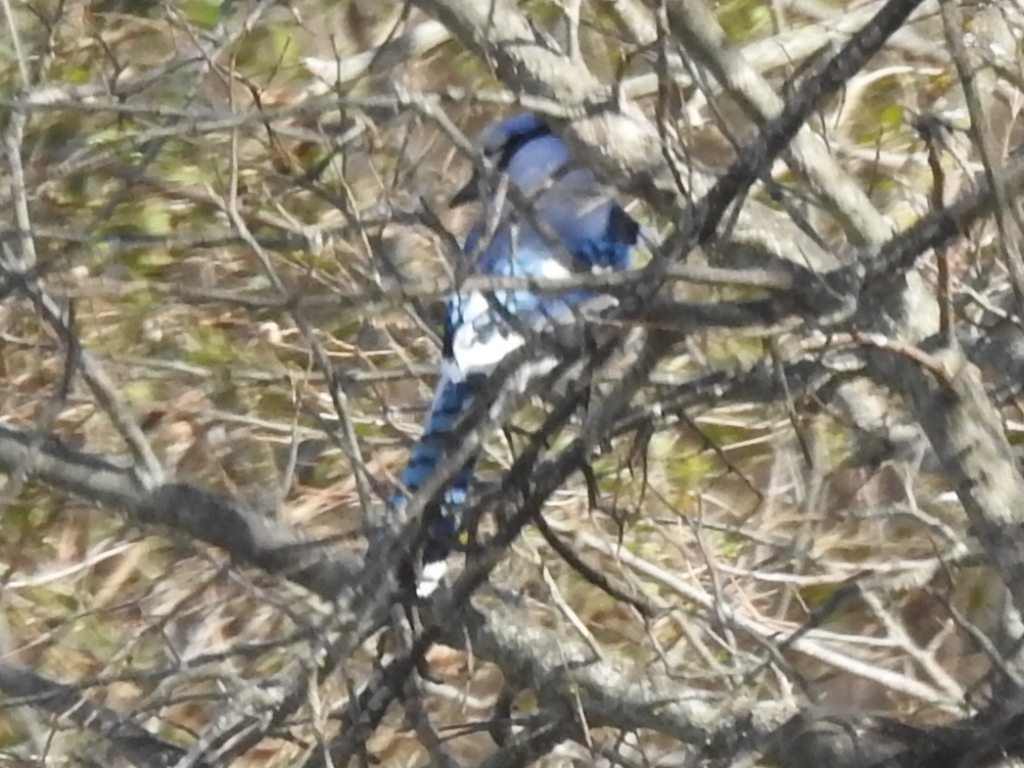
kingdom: Animalia
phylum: Chordata
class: Aves
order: Passeriformes
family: Corvidae
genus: Cyanocitta
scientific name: Cyanocitta cristata
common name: Blue jay
